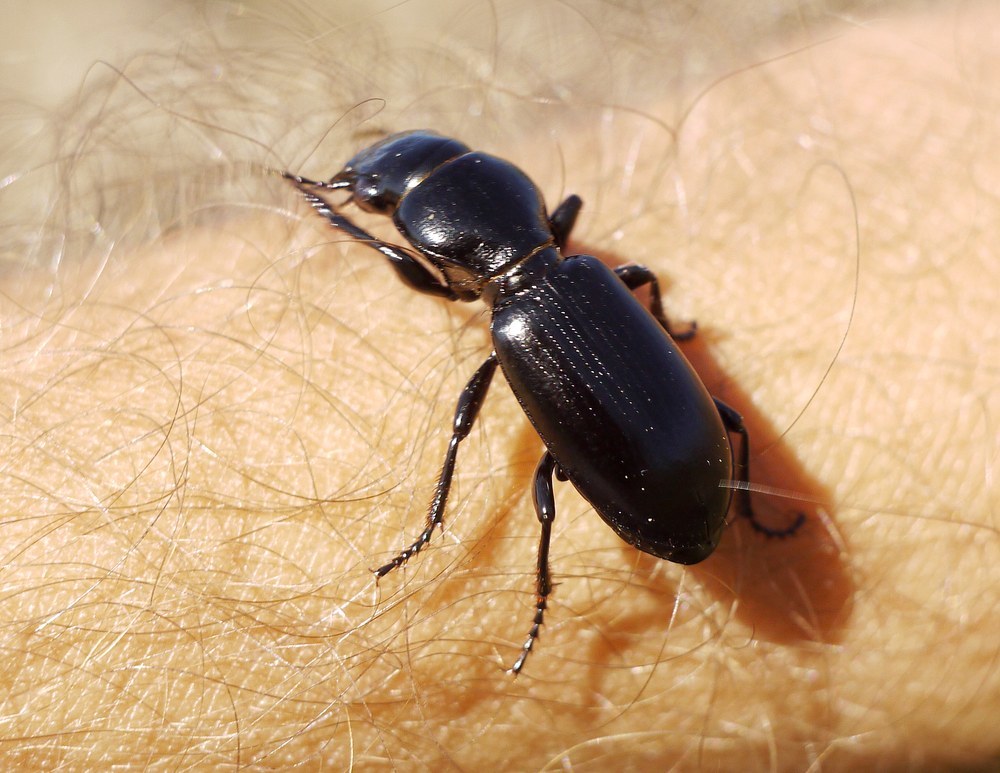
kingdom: Animalia
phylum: Arthropoda
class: Insecta
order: Coleoptera
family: Carabidae
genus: Broscus
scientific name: Broscus semistriatus
